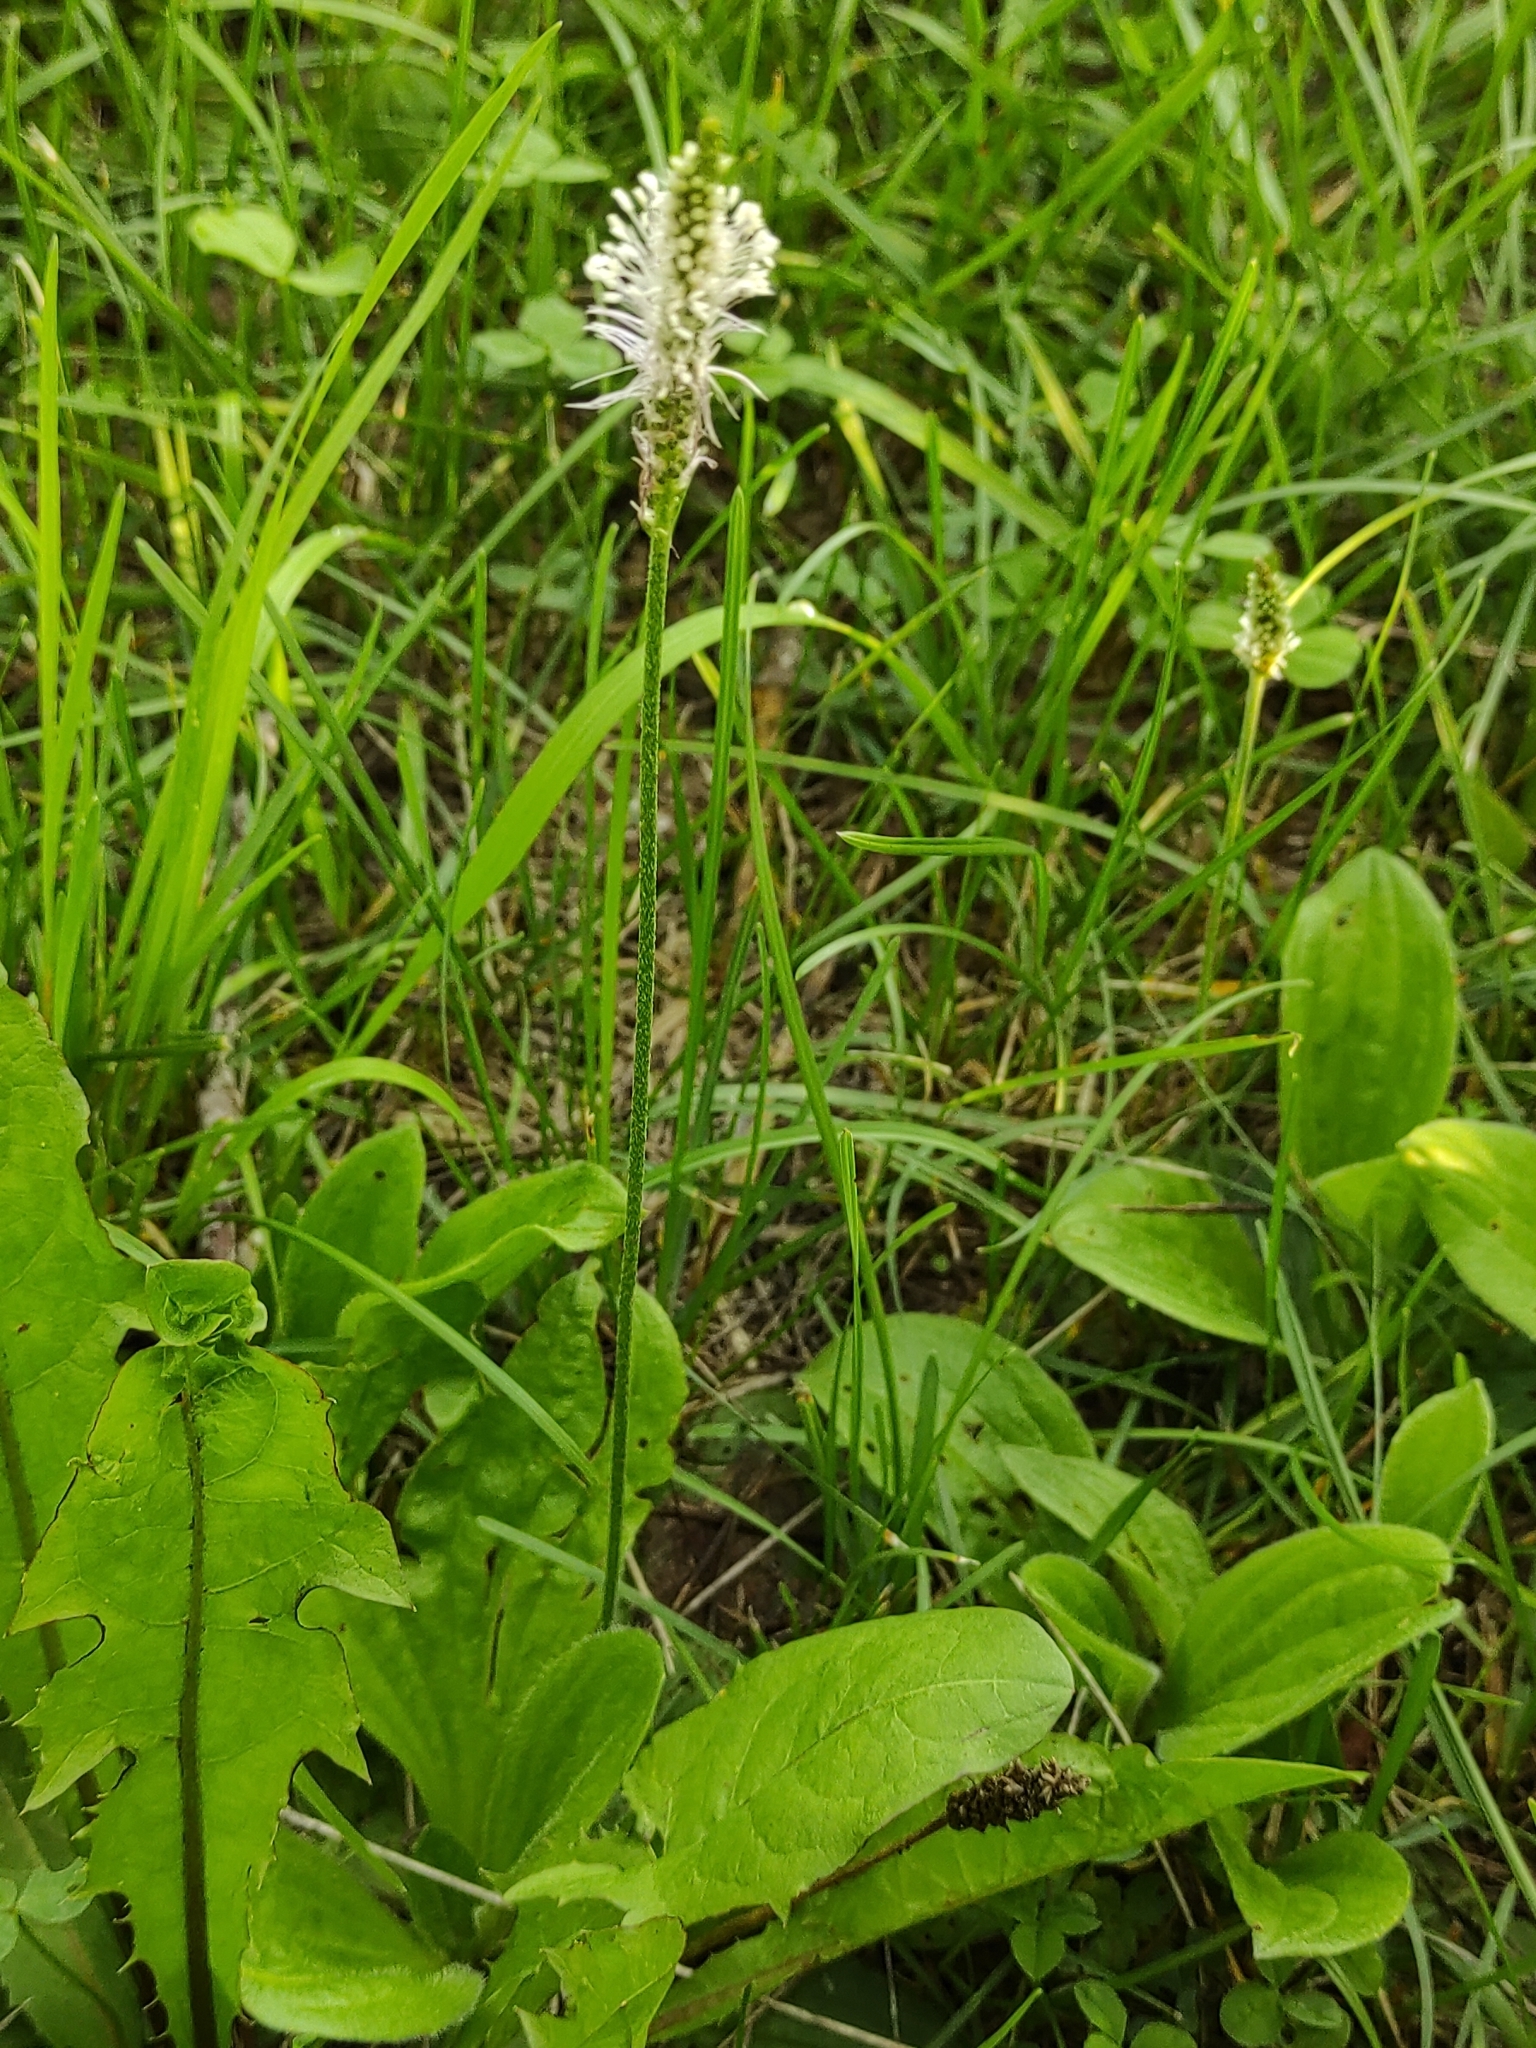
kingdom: Plantae
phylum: Tracheophyta
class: Magnoliopsida
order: Lamiales
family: Plantaginaceae
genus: Plantago
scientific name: Plantago media
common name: Hoary plantain
